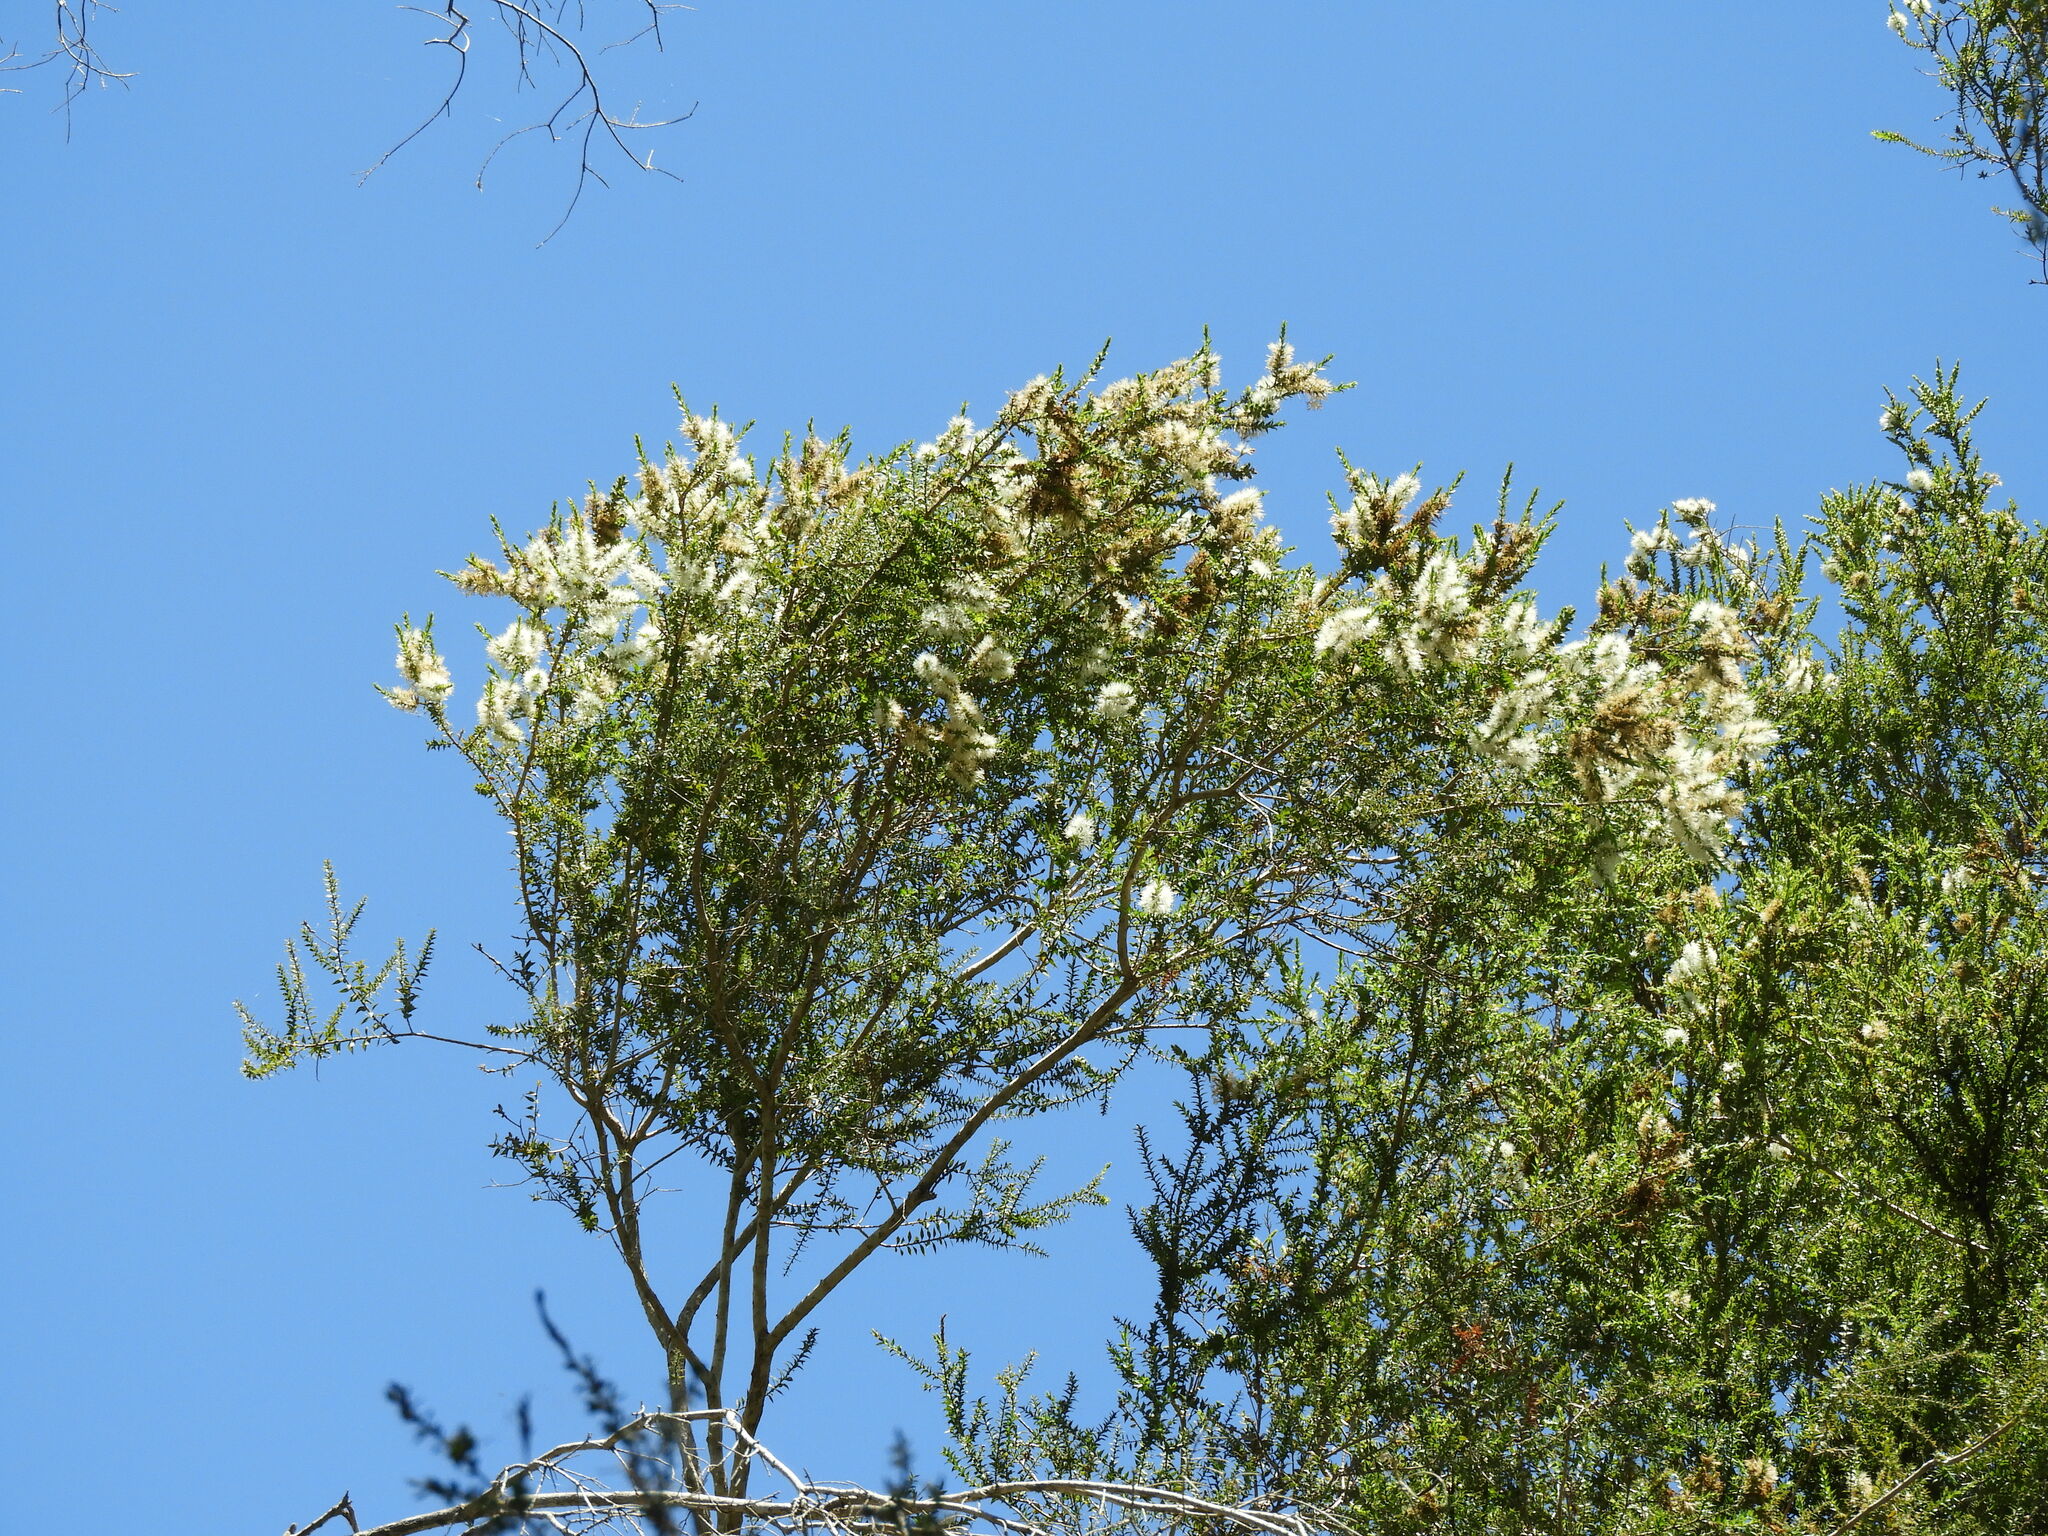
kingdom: Plantae
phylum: Tracheophyta
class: Magnoliopsida
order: Myrtales
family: Myrtaceae
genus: Melaleuca
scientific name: Melaleuca styphelioides
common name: Prickly paperbark
